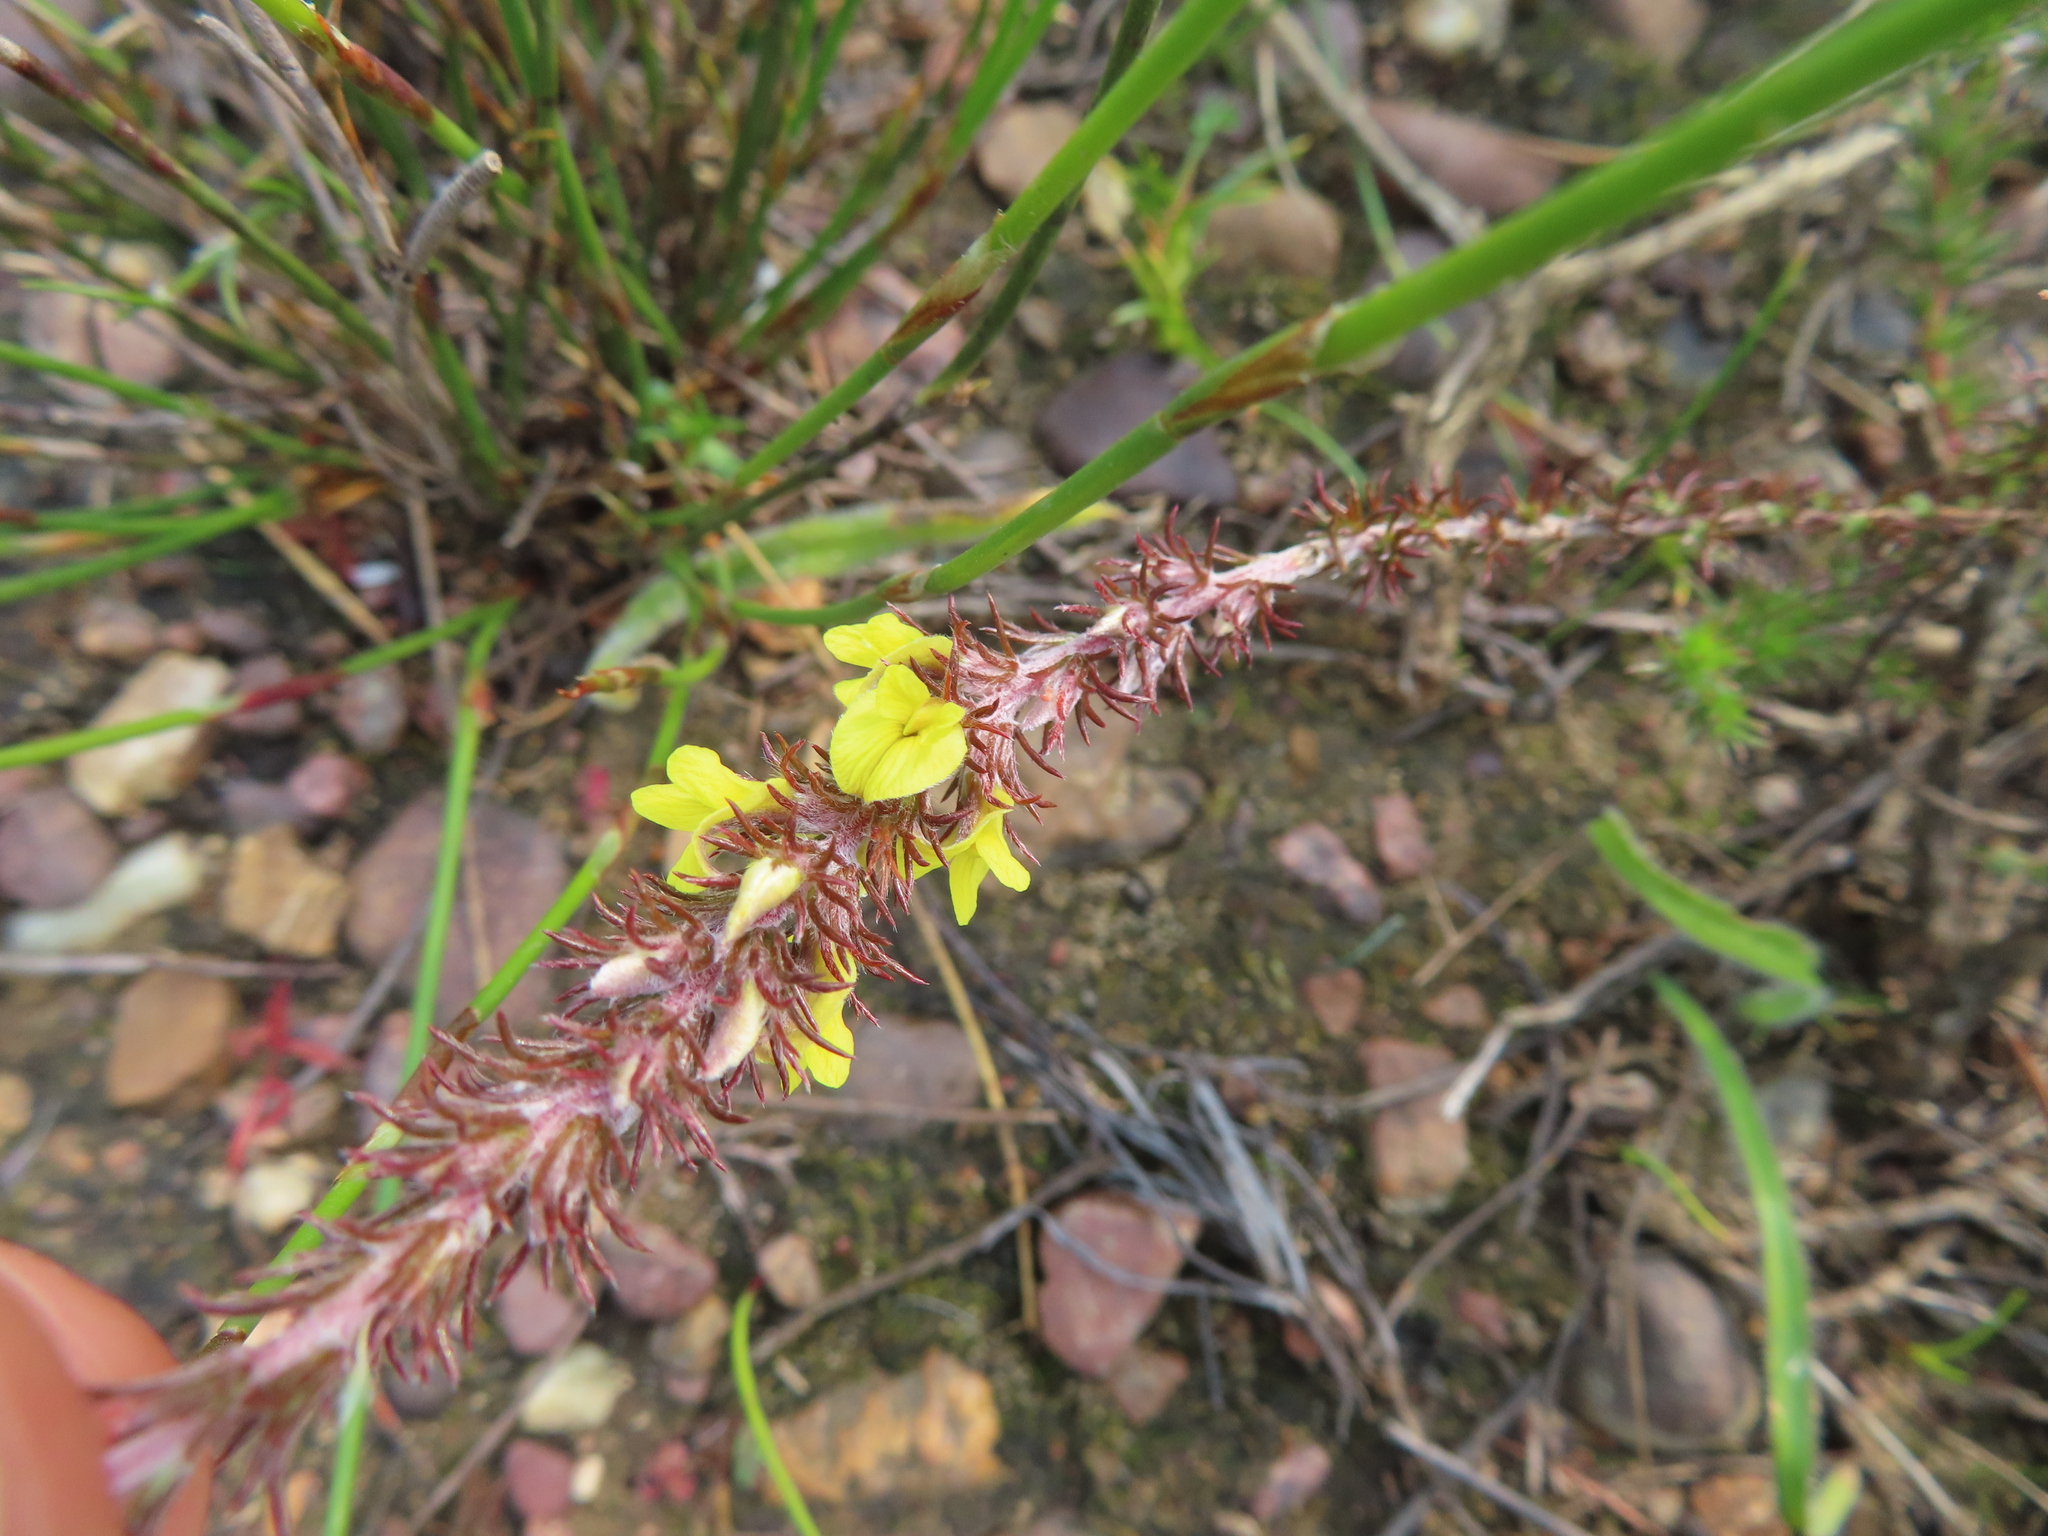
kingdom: Plantae
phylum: Tracheophyta
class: Magnoliopsida
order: Fabales
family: Fabaceae
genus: Aspalathus
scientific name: Aspalathus parviflora
